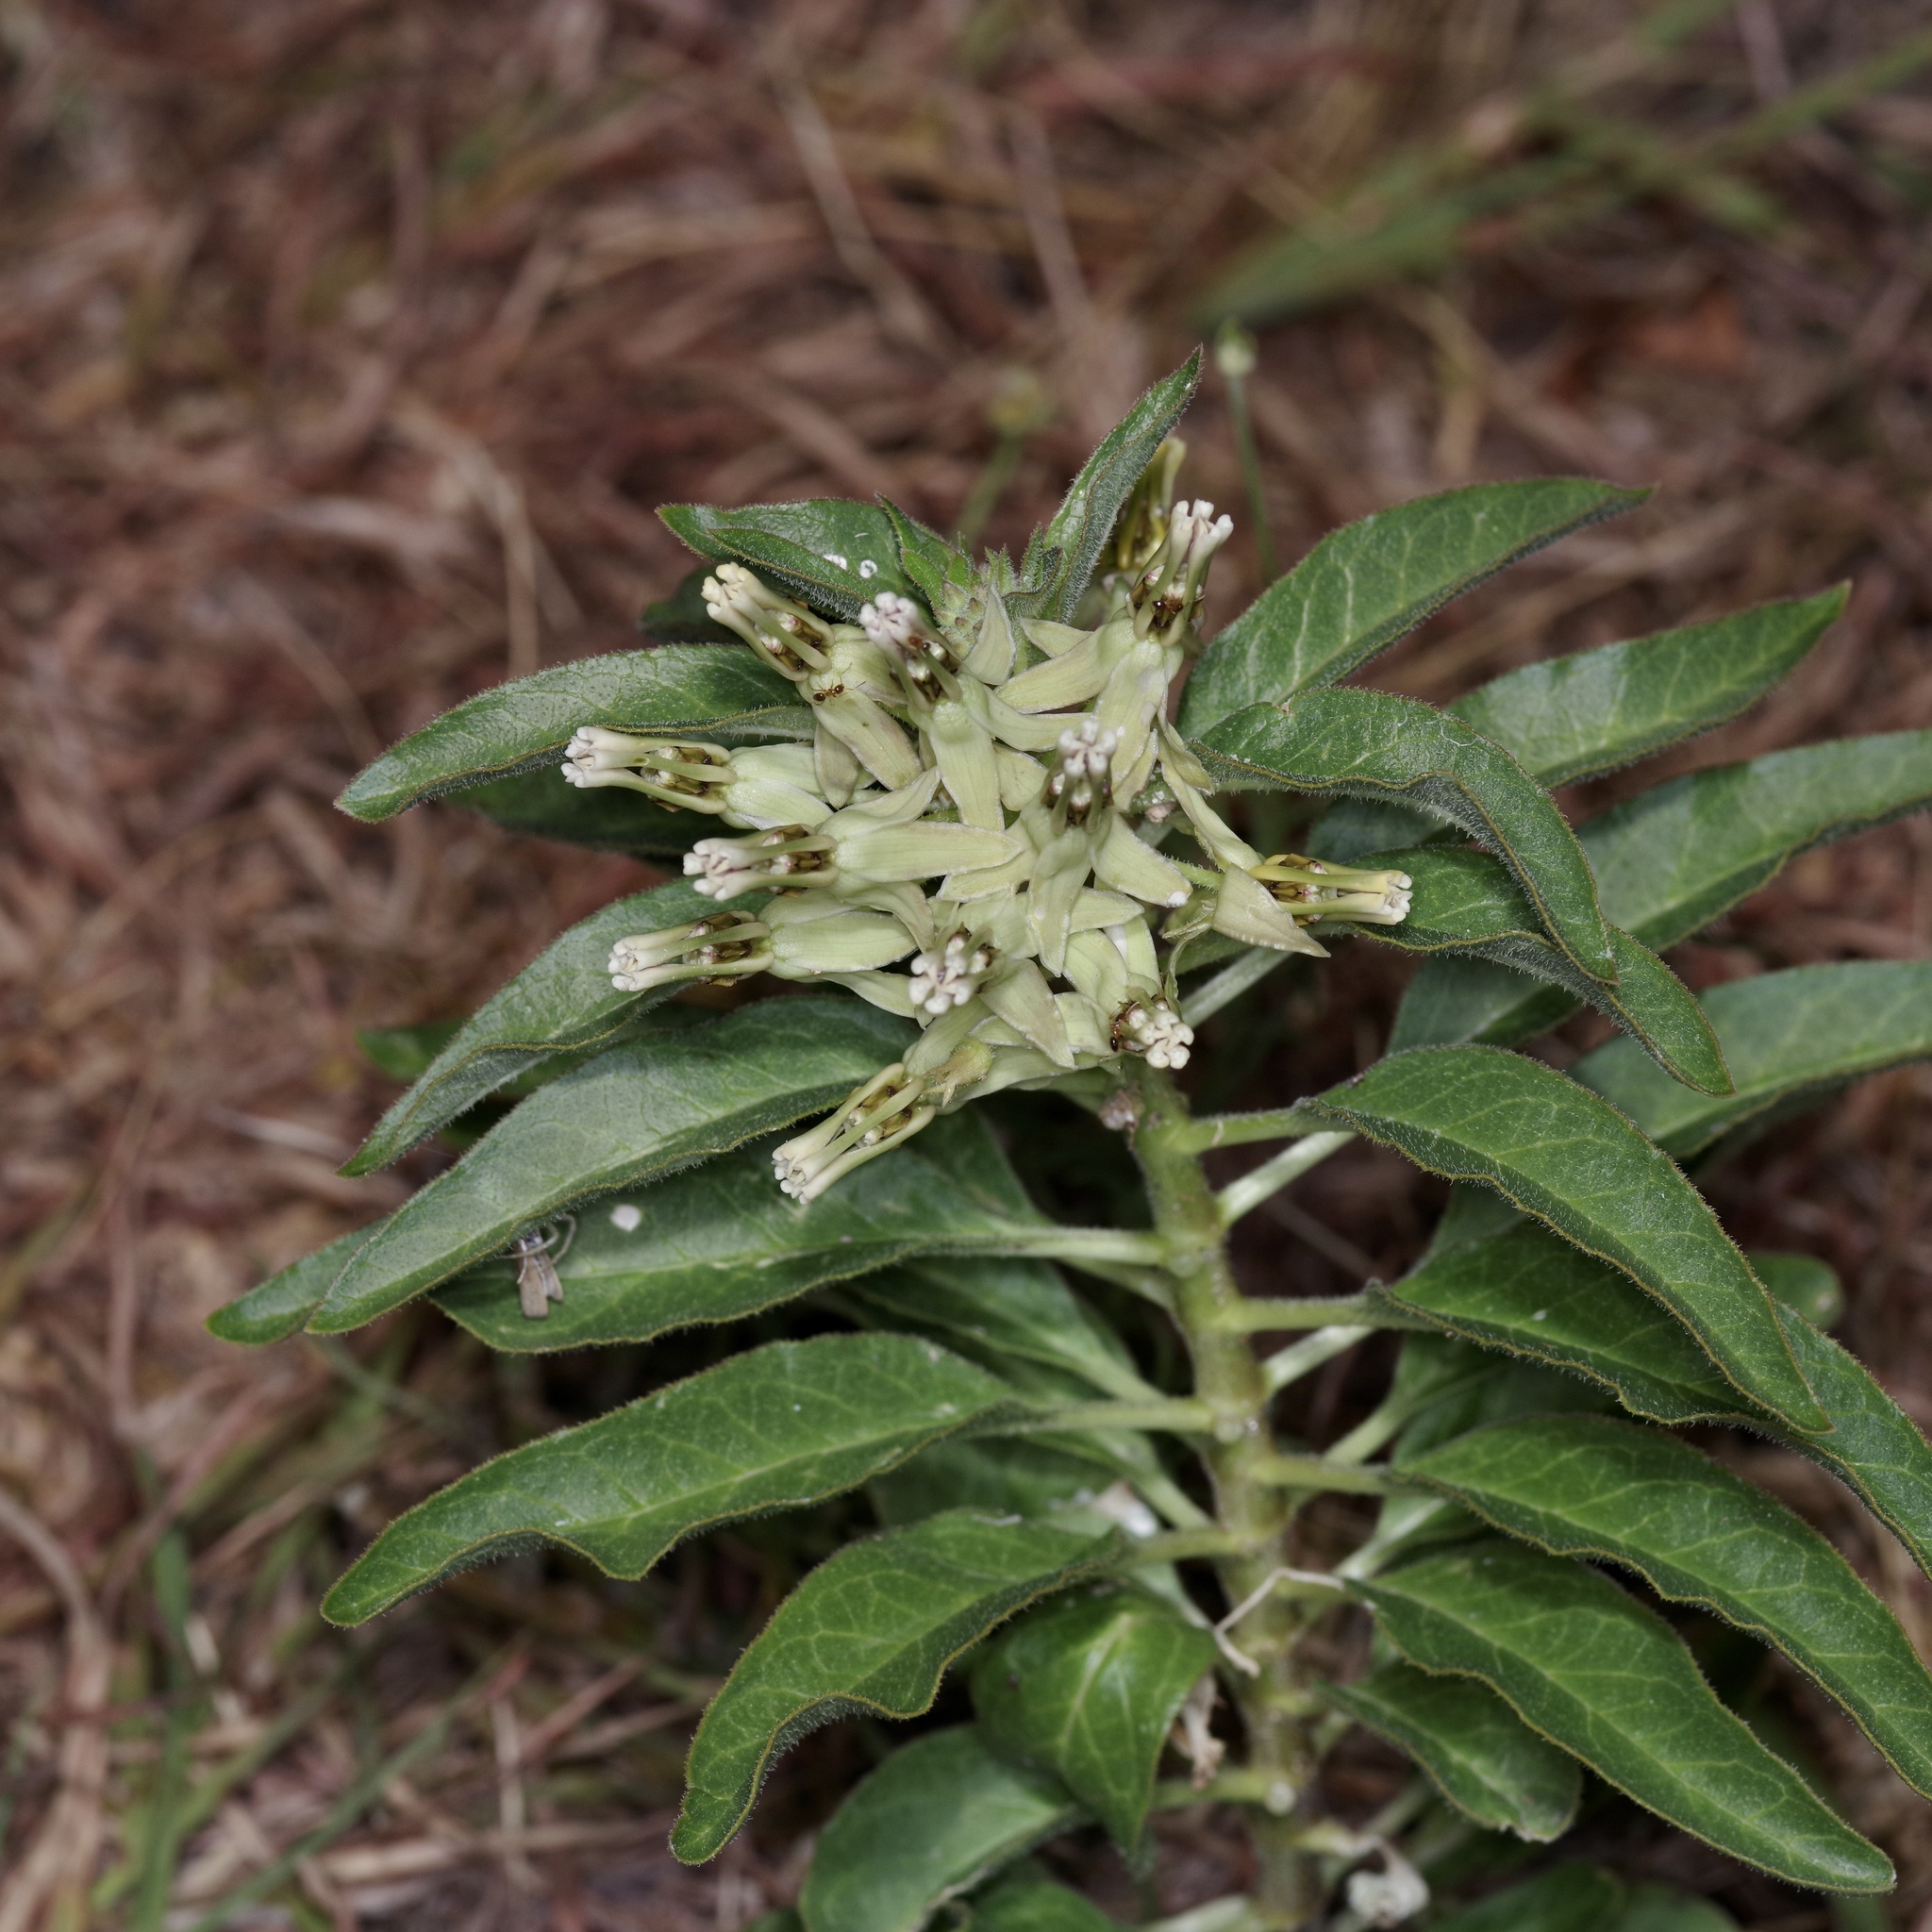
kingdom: Plantae
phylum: Tracheophyta
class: Magnoliopsida
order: Gentianales
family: Apocynaceae
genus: Asclepias
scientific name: Asclepias oenotheroides
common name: Zizotes milkweed
